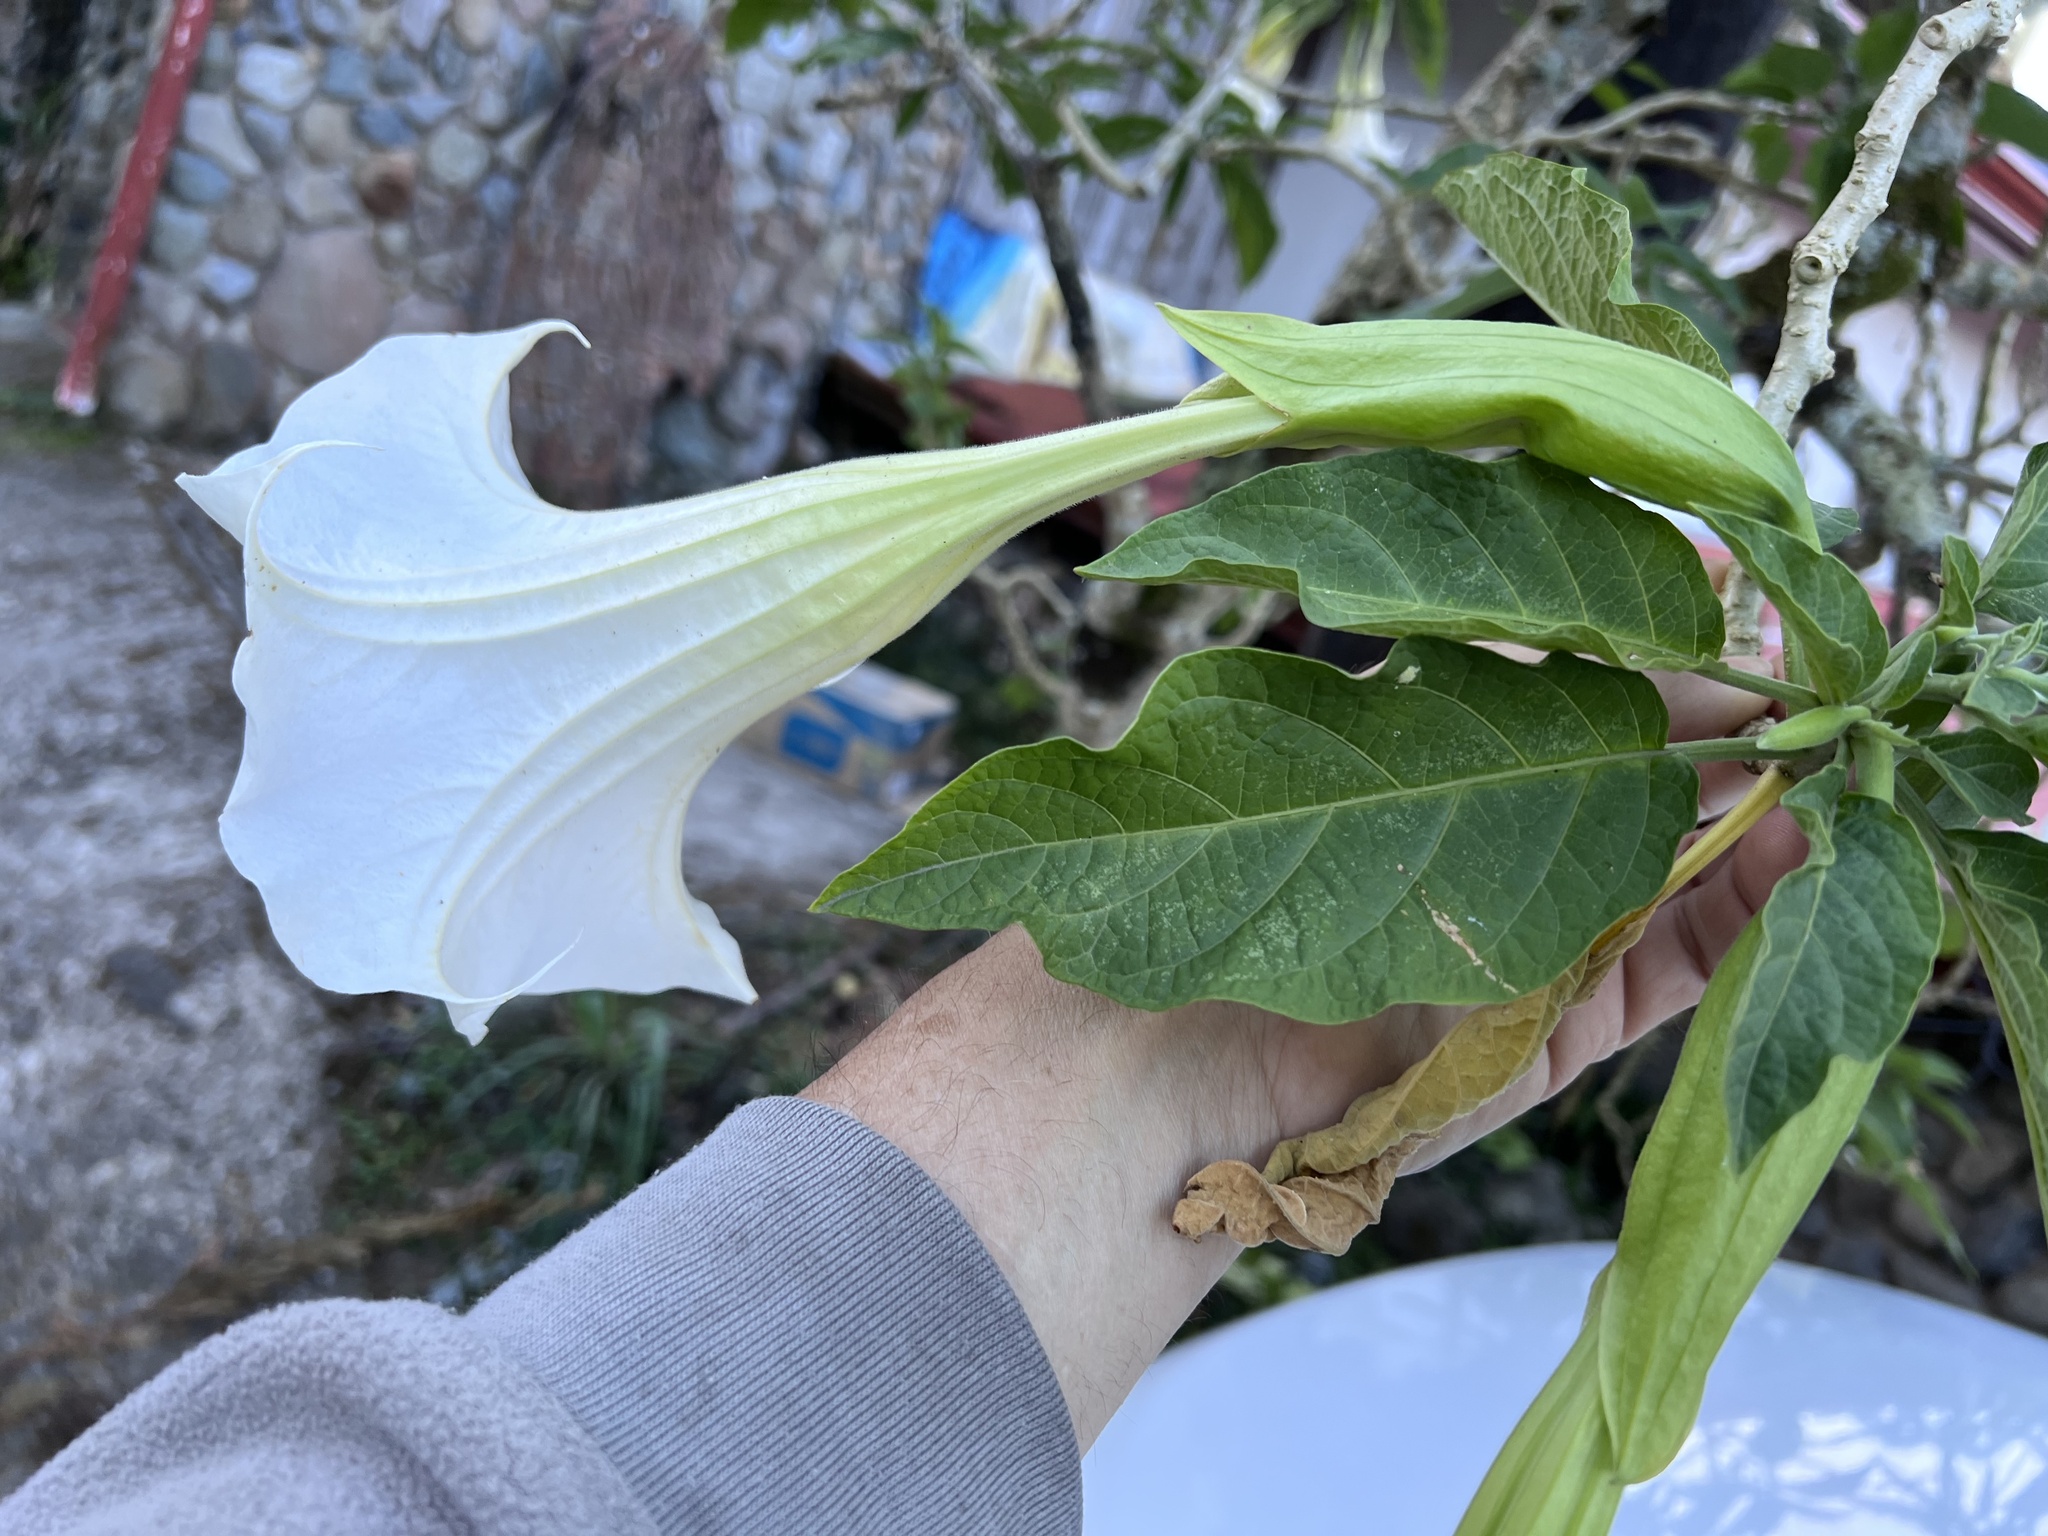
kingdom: Plantae
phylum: Tracheophyta
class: Magnoliopsida
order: Solanales
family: Solanaceae
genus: Brugmansia
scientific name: Brugmansia suaveolens
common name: Angel's tears
